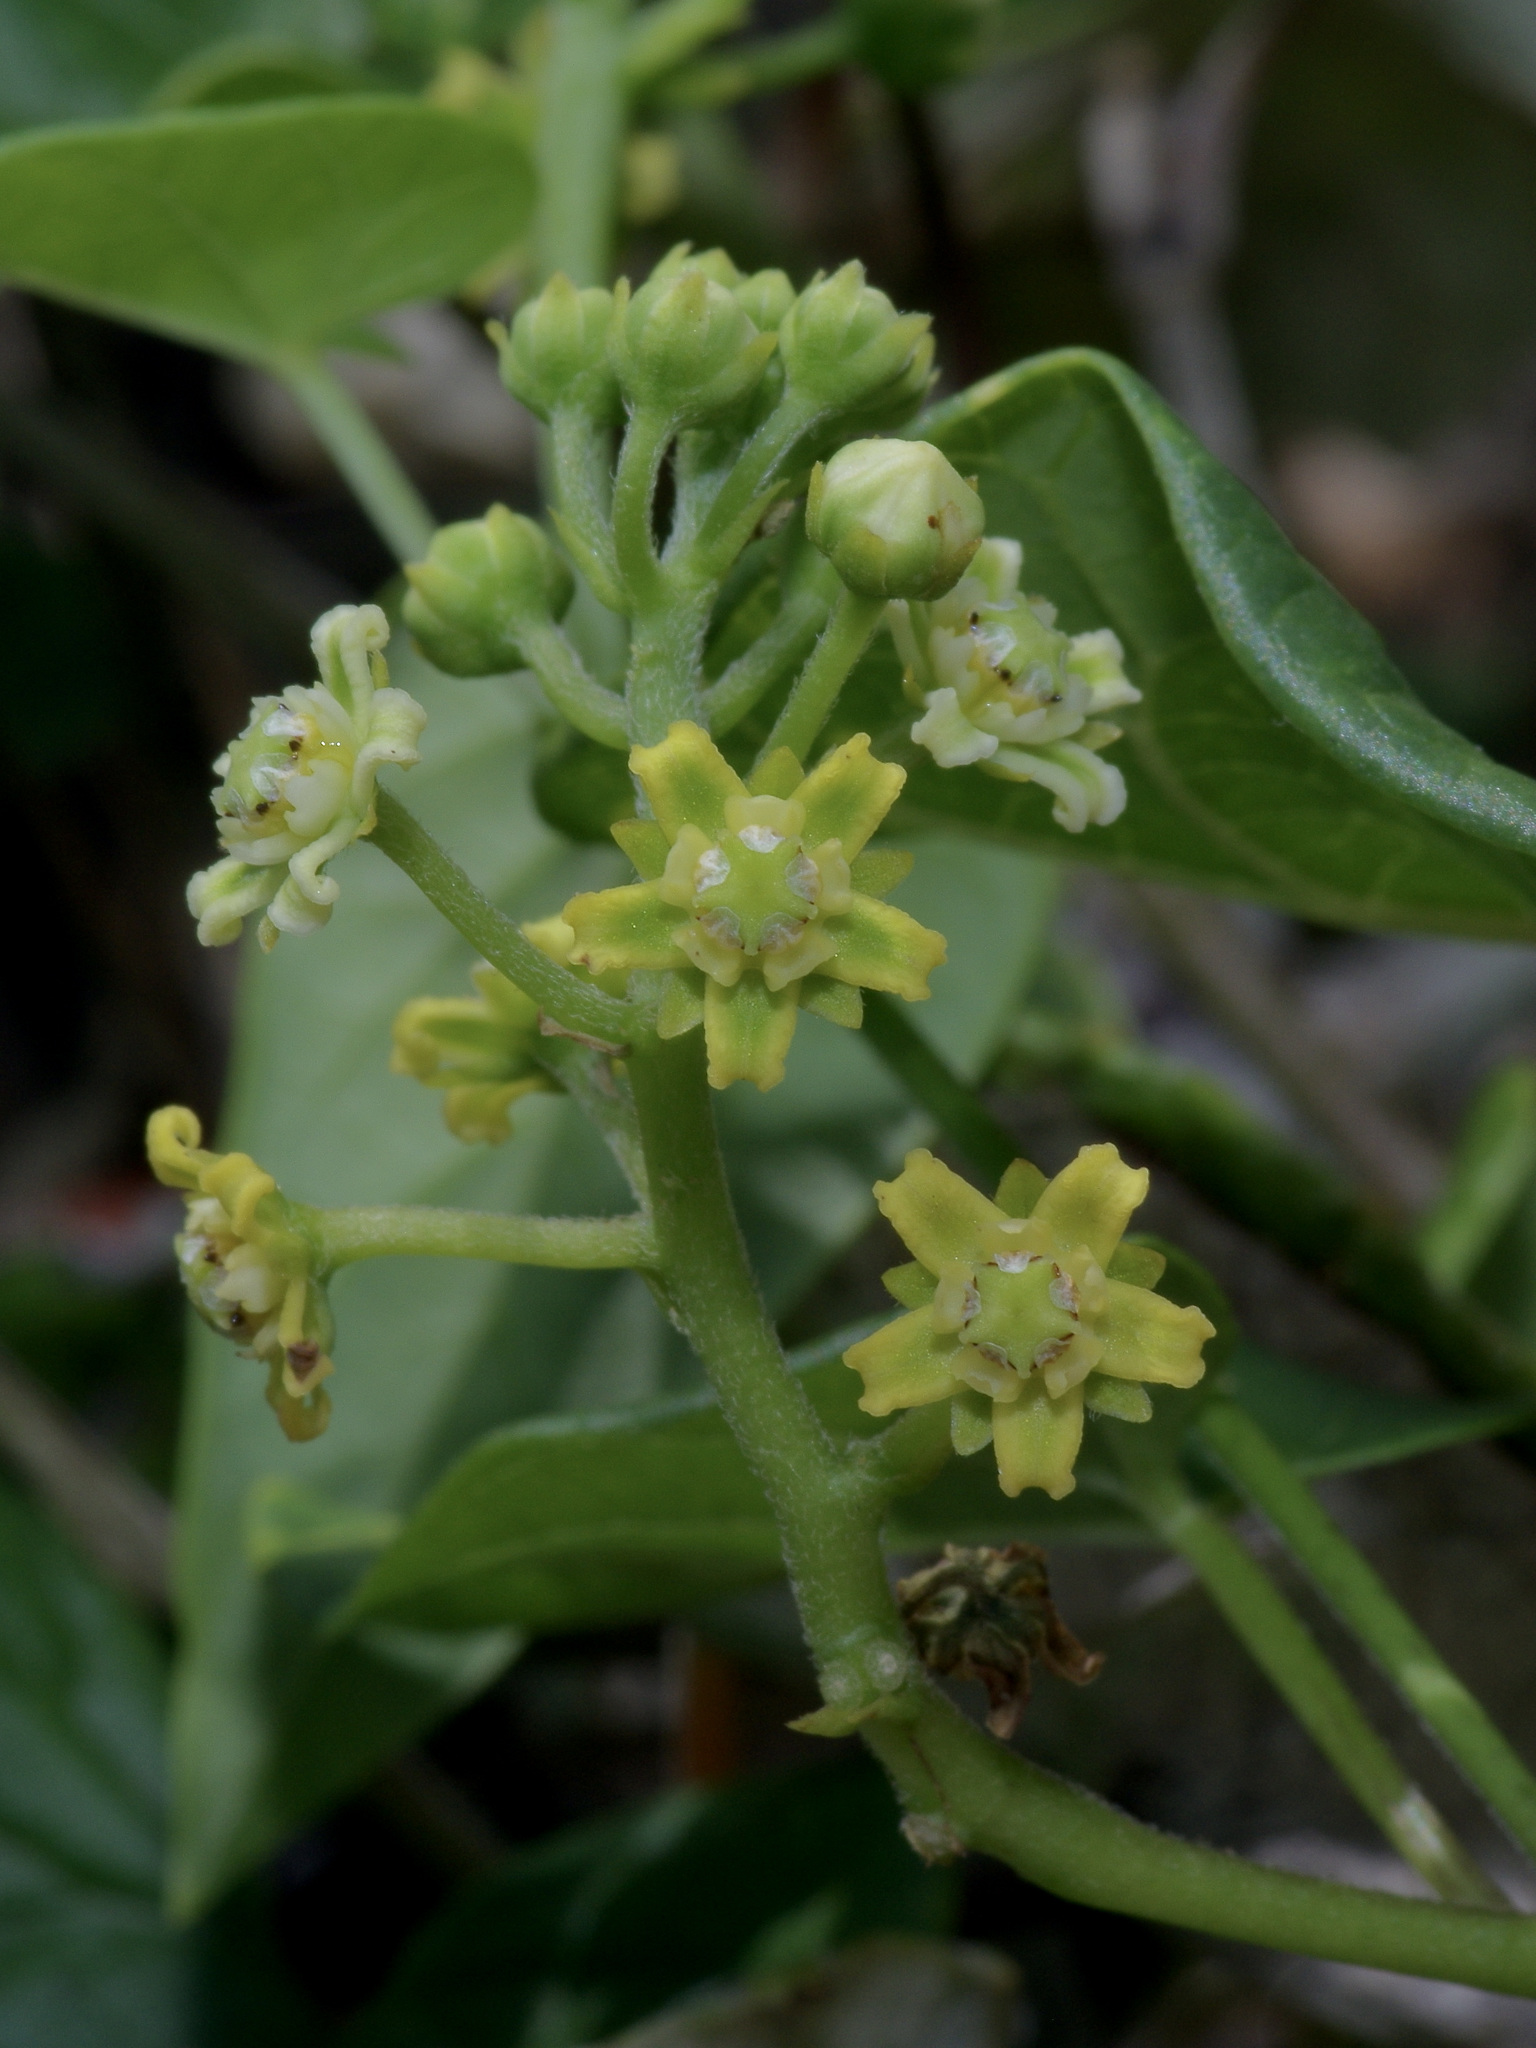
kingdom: Plantae
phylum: Tracheophyta
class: Magnoliopsida
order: Gentianales
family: Apocynaceae
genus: Cynanchum
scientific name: Cynanchum racemosum
